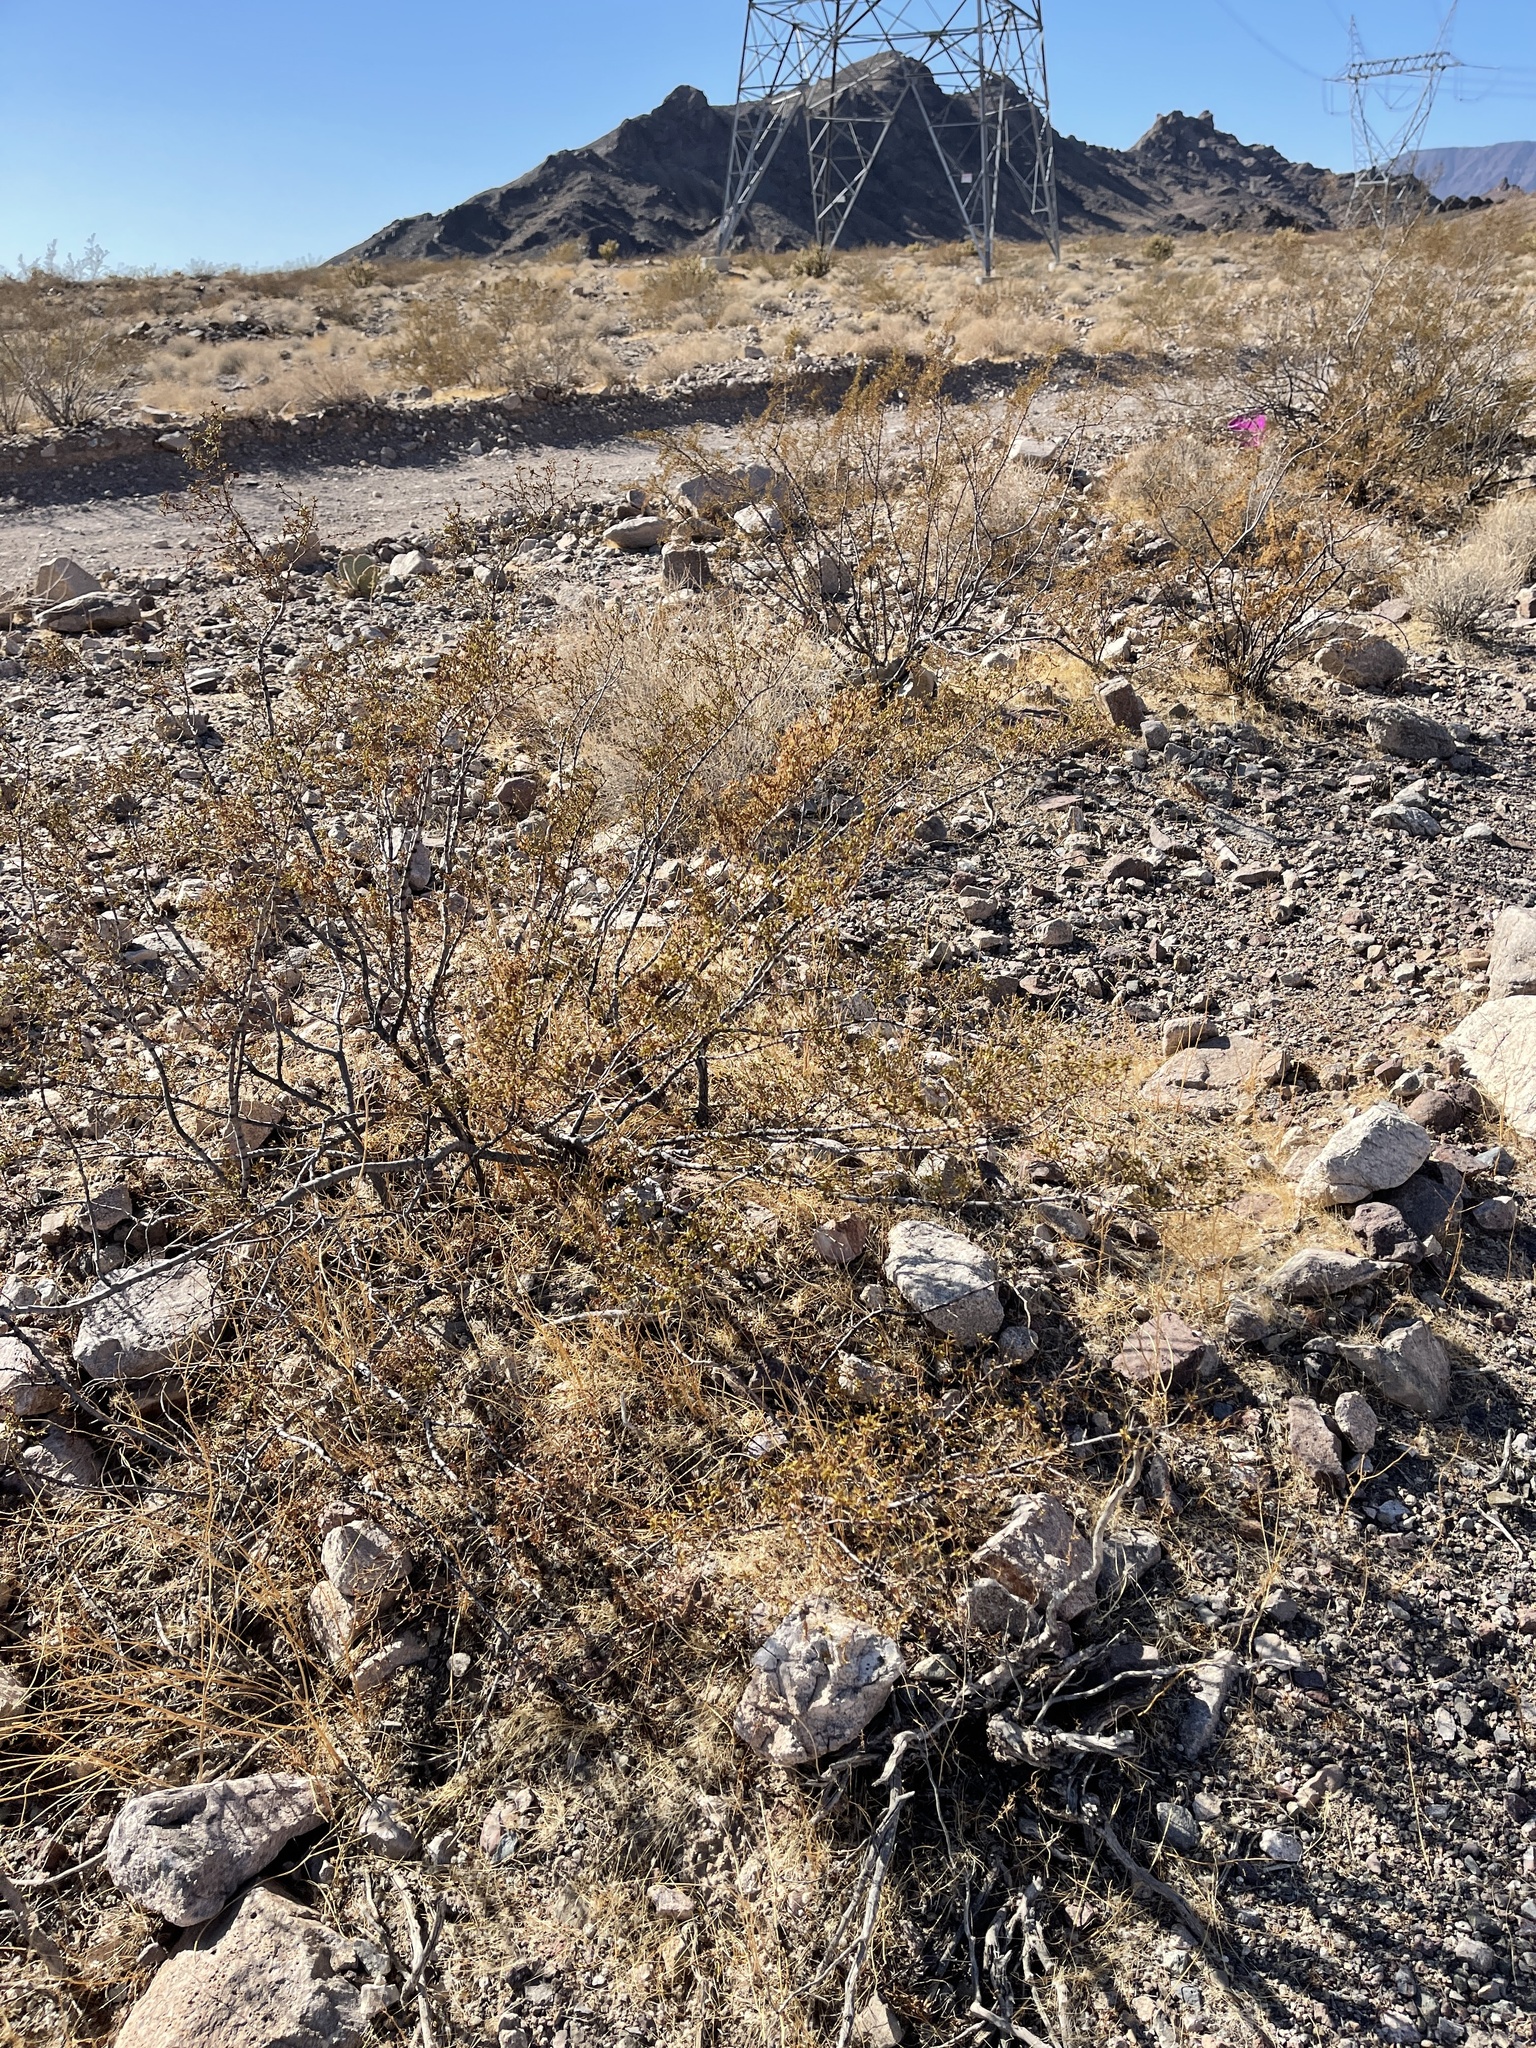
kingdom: Plantae
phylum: Tracheophyta
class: Magnoliopsida
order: Zygophyllales
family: Zygophyllaceae
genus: Larrea
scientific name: Larrea tridentata
